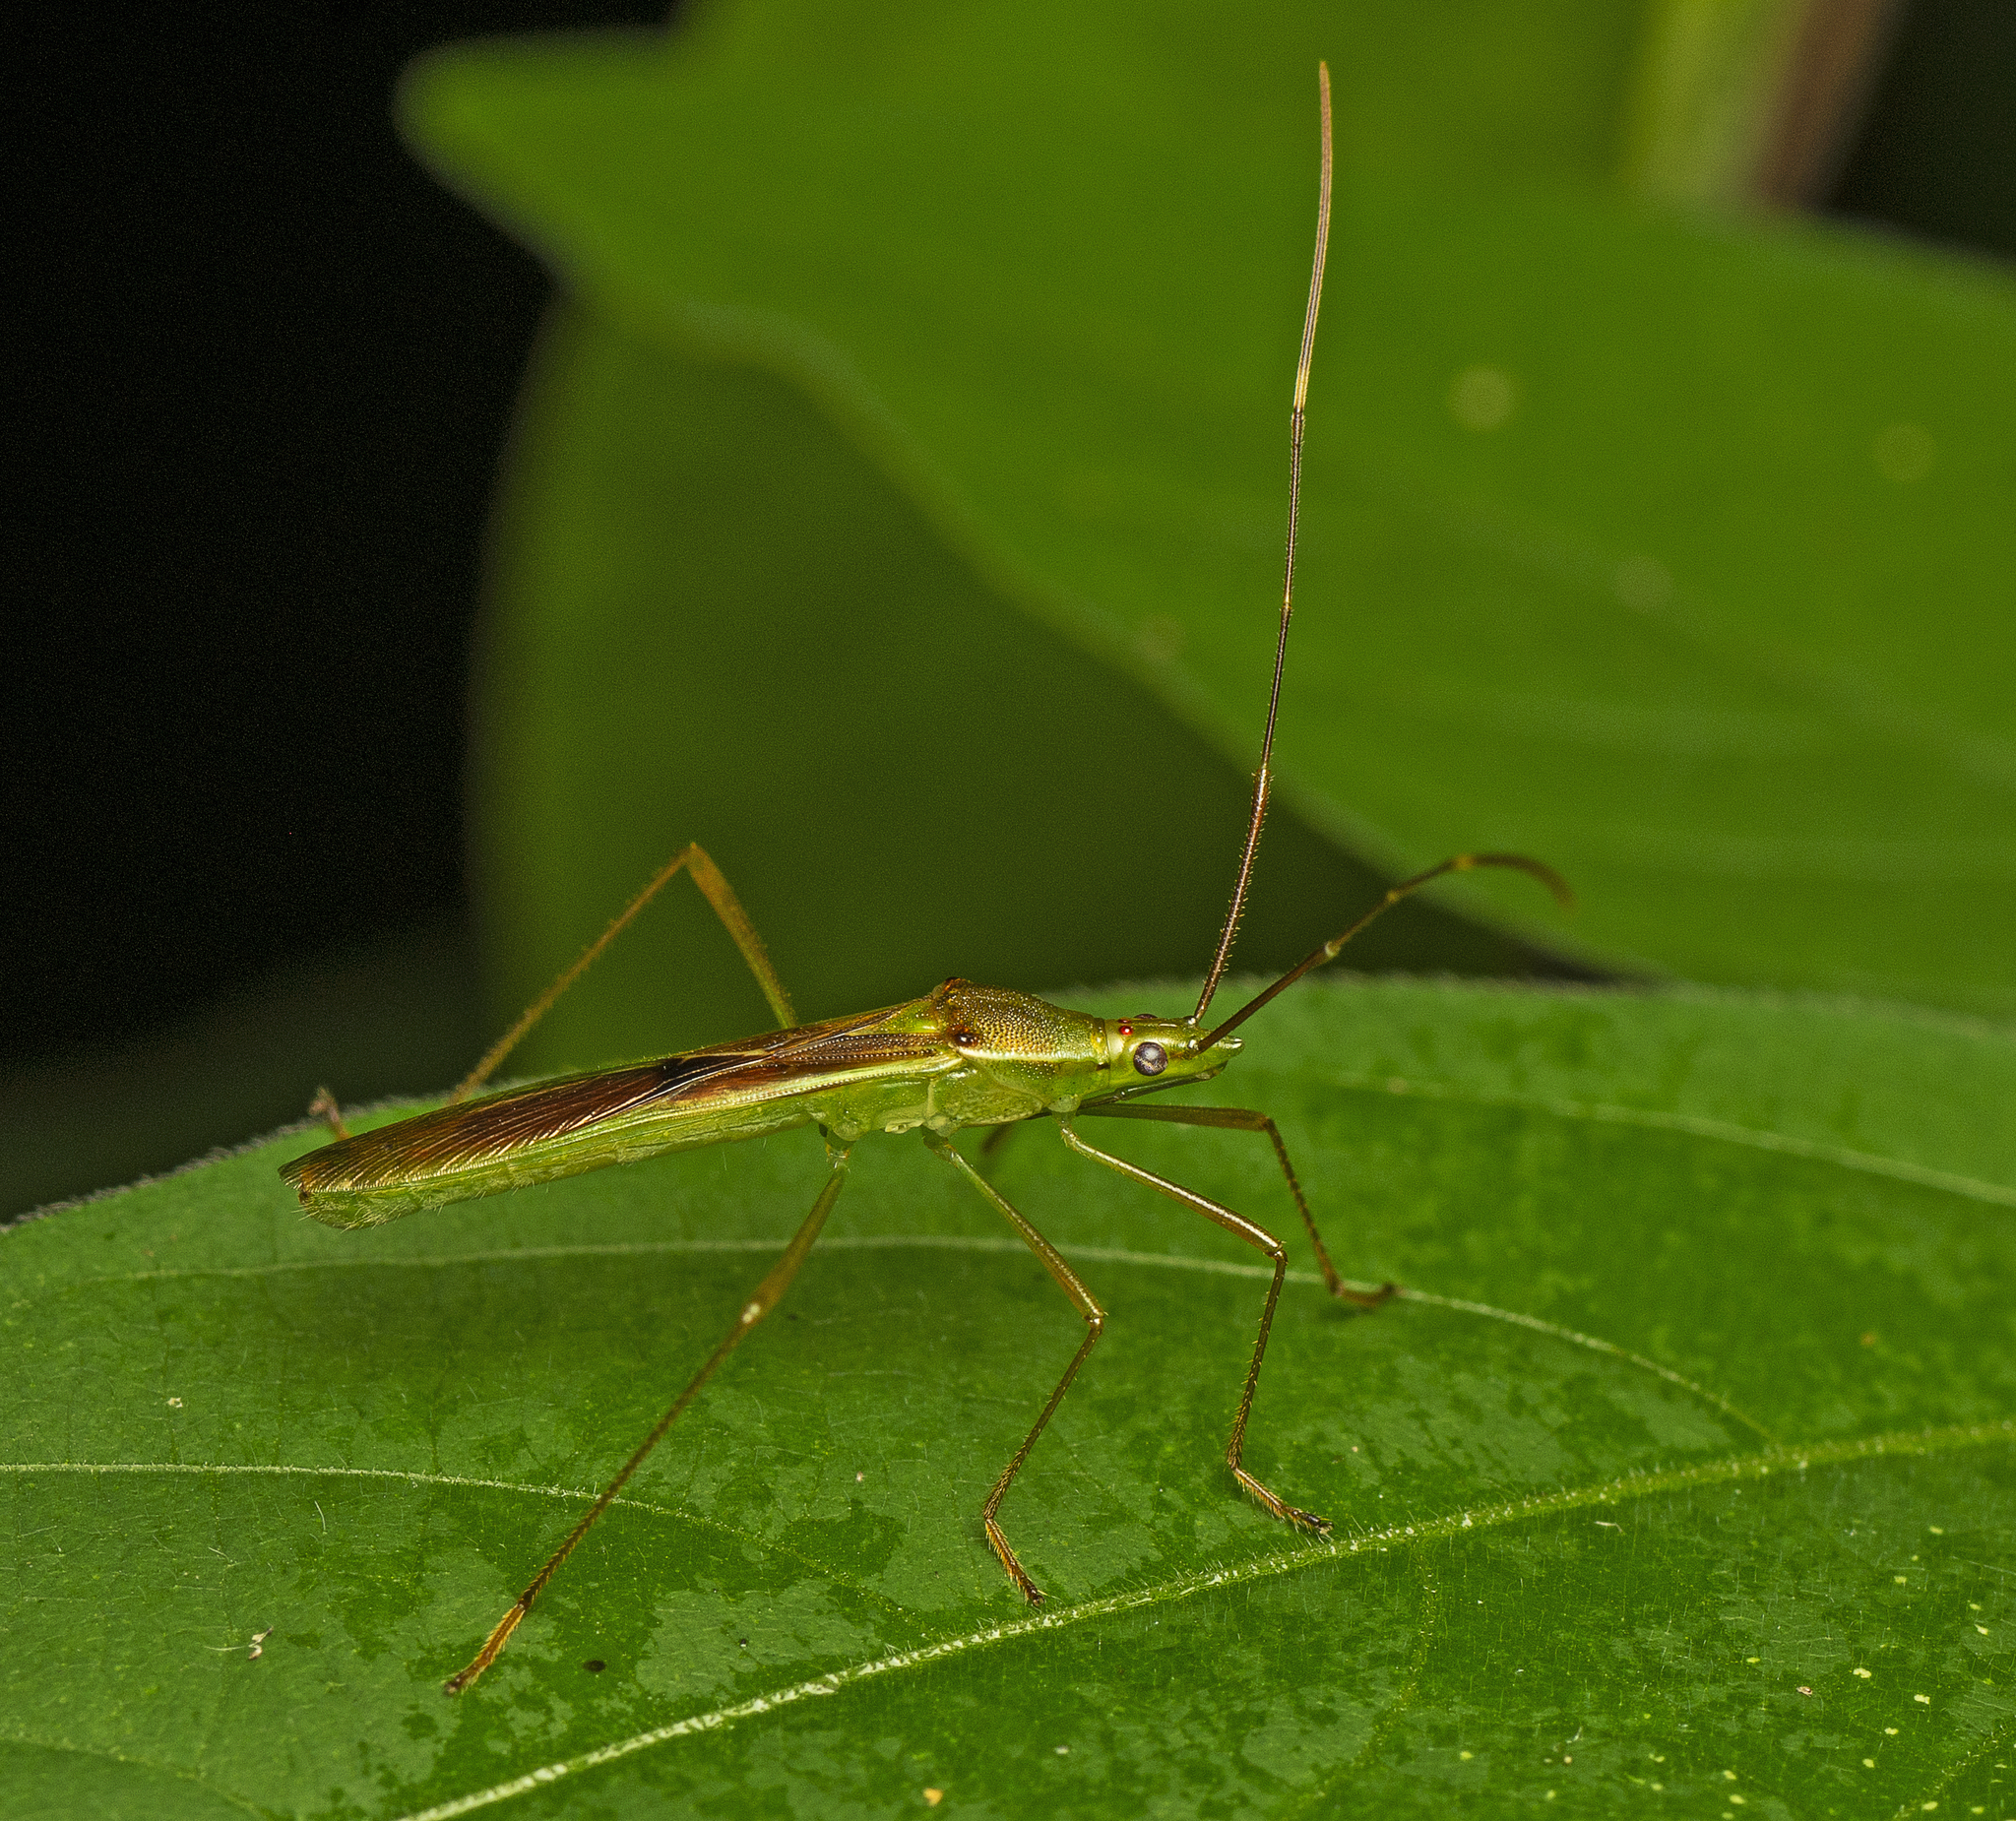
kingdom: Animalia
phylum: Arthropoda
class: Insecta
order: Hemiptera
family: Alydidae
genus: Leptocorisa
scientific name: Leptocorisa acuta
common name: Gandhi bug
